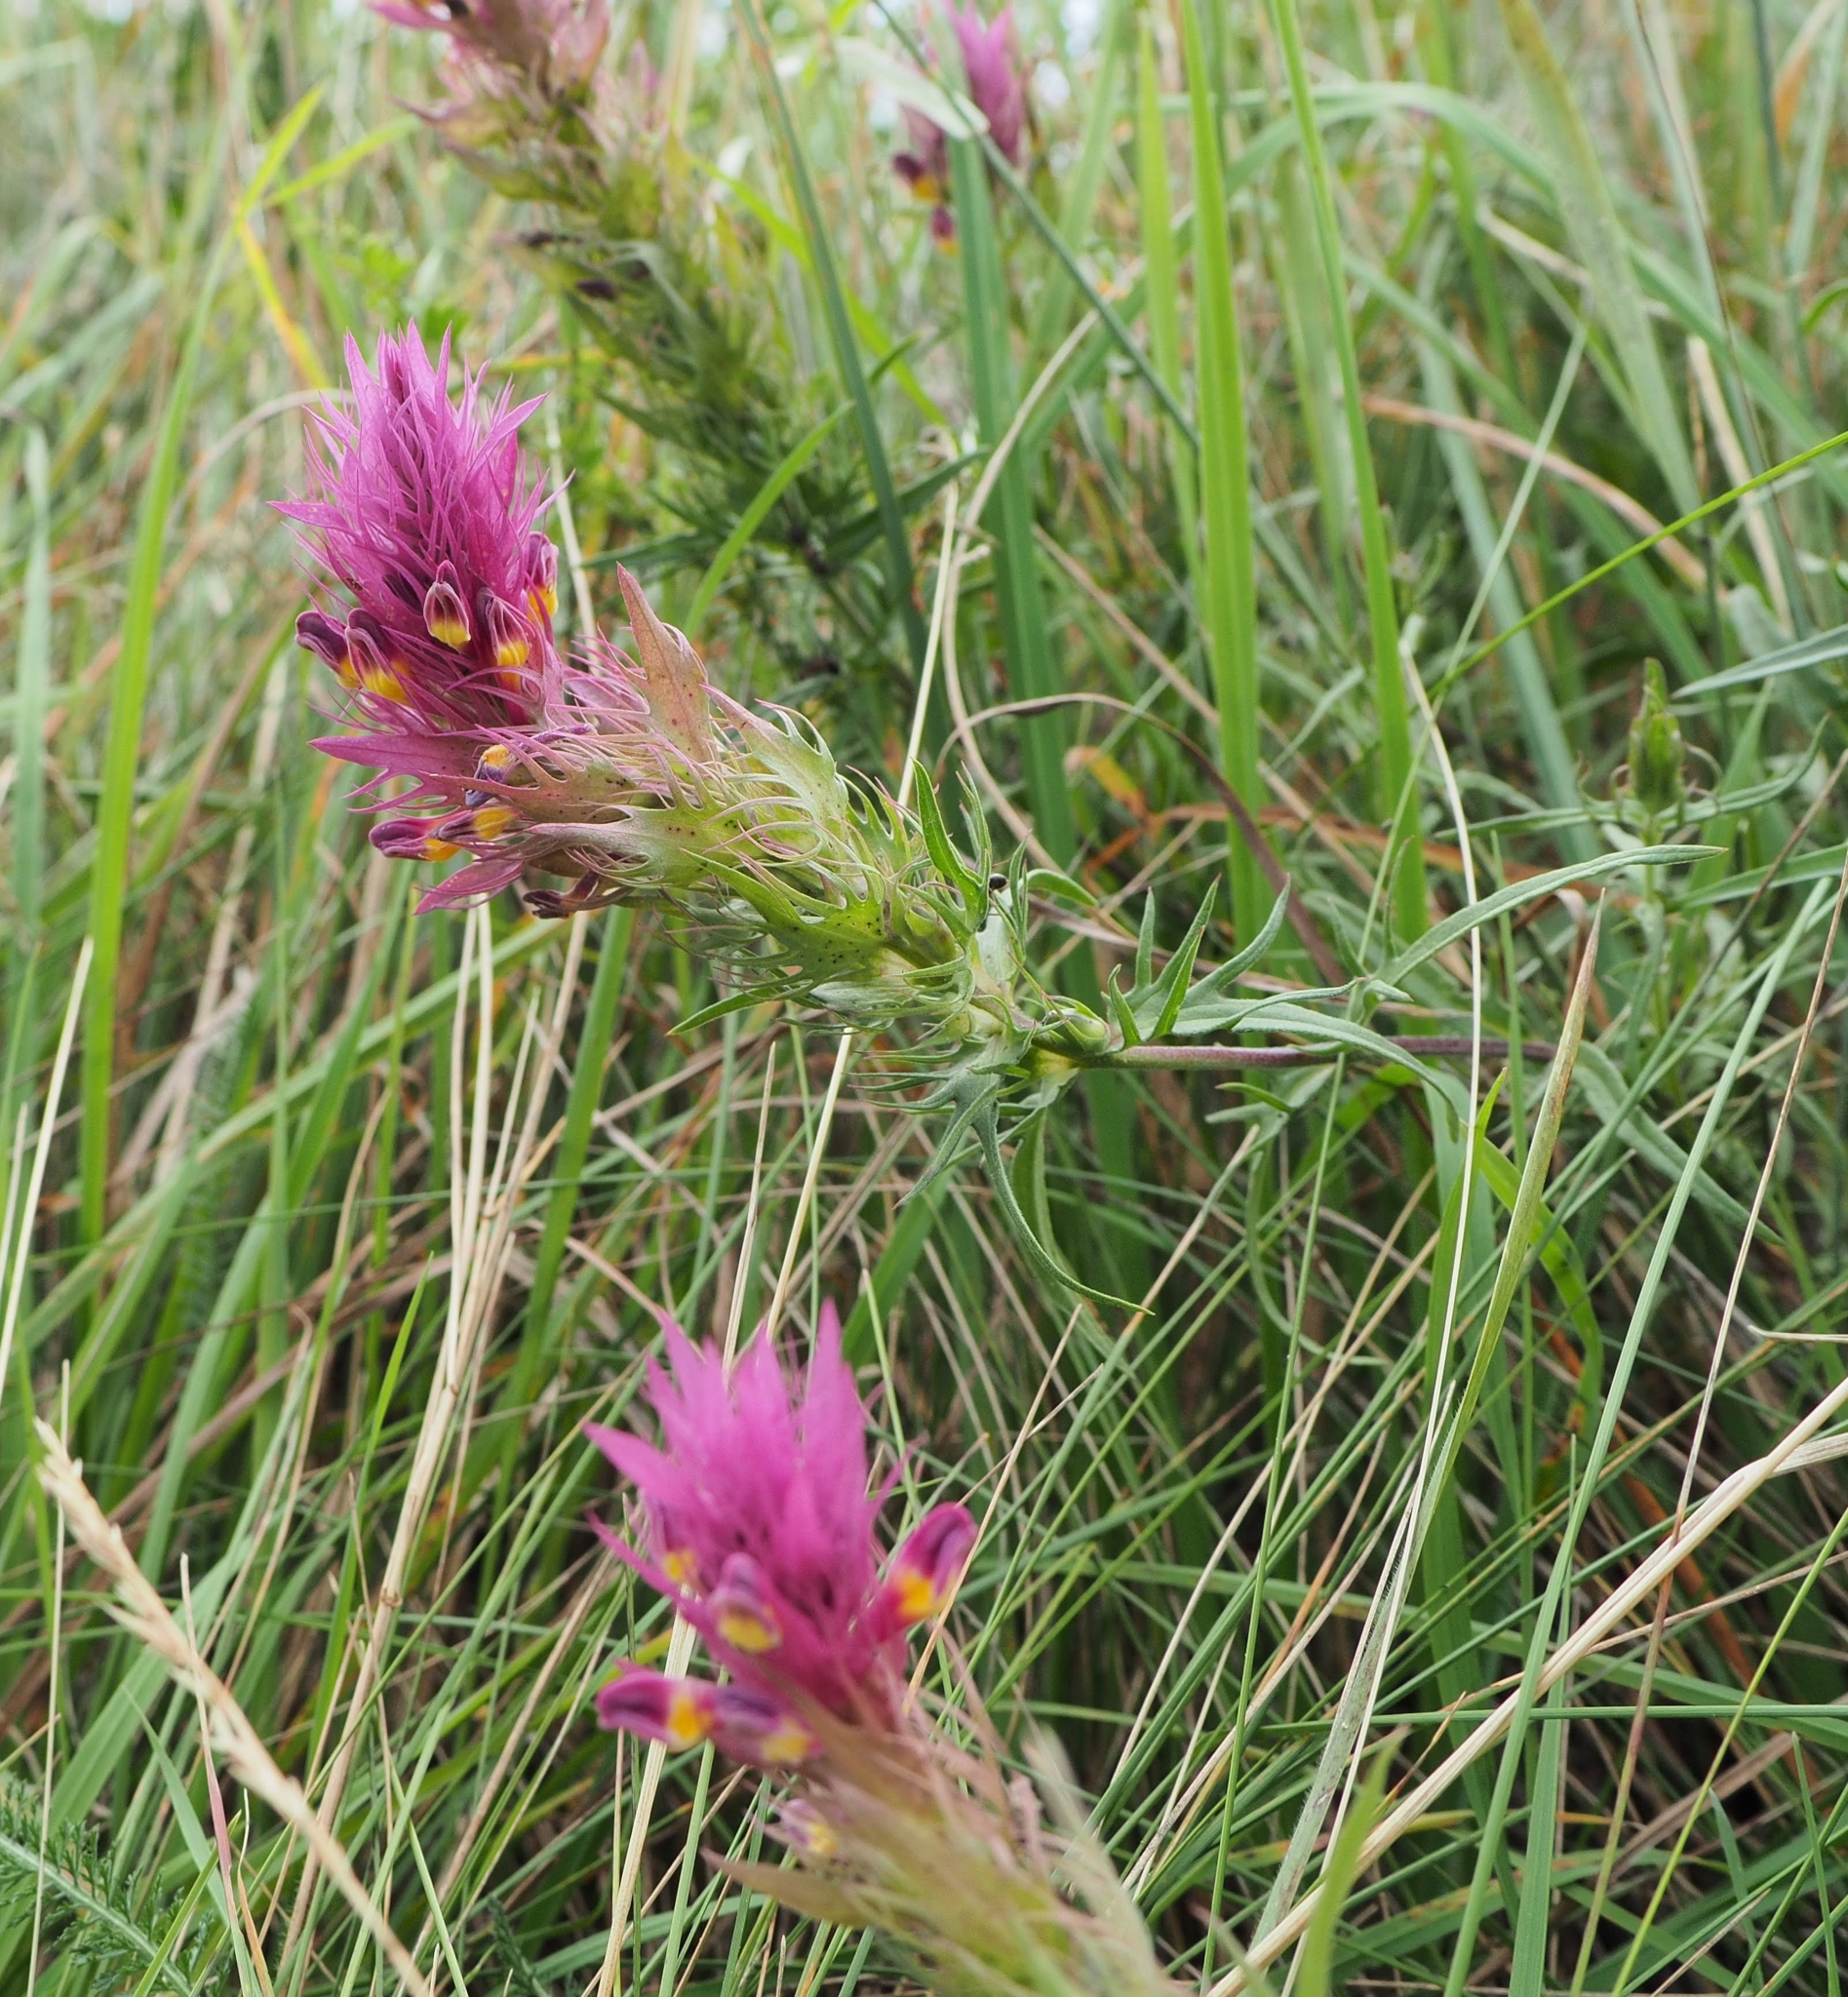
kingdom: Plantae
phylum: Tracheophyta
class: Magnoliopsida
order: Lamiales
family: Orobanchaceae
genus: Melampyrum
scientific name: Melampyrum arvense
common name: Field cow-wheat
